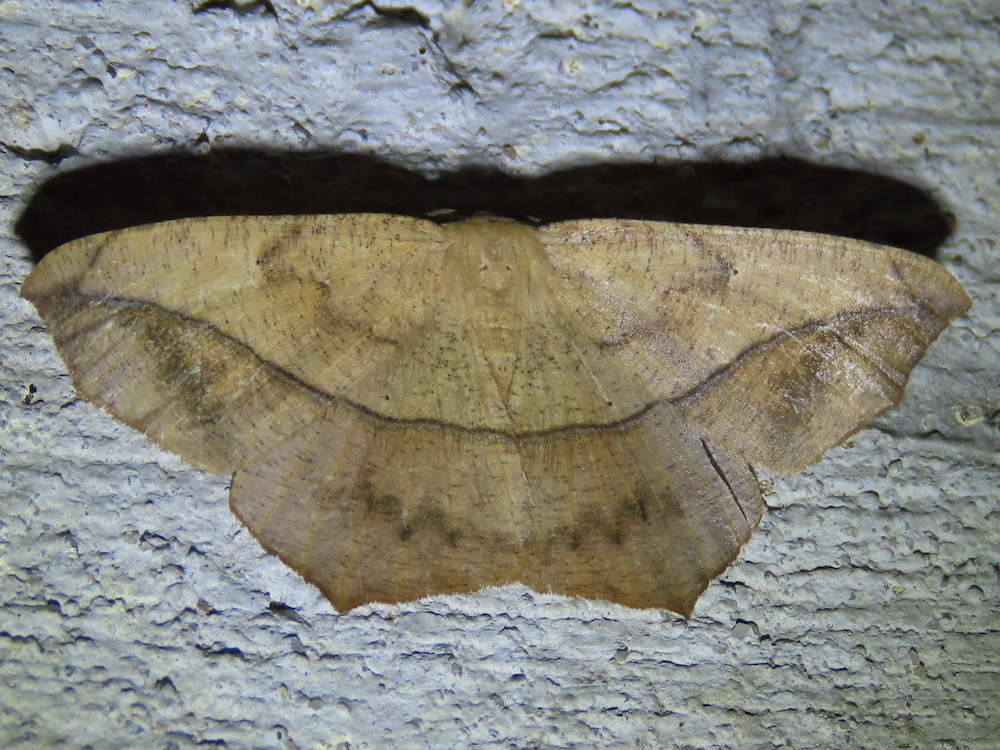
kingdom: Animalia
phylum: Arthropoda
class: Insecta
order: Lepidoptera
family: Geometridae
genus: Prochoerodes
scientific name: Prochoerodes lineola
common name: Large maple spanworm
